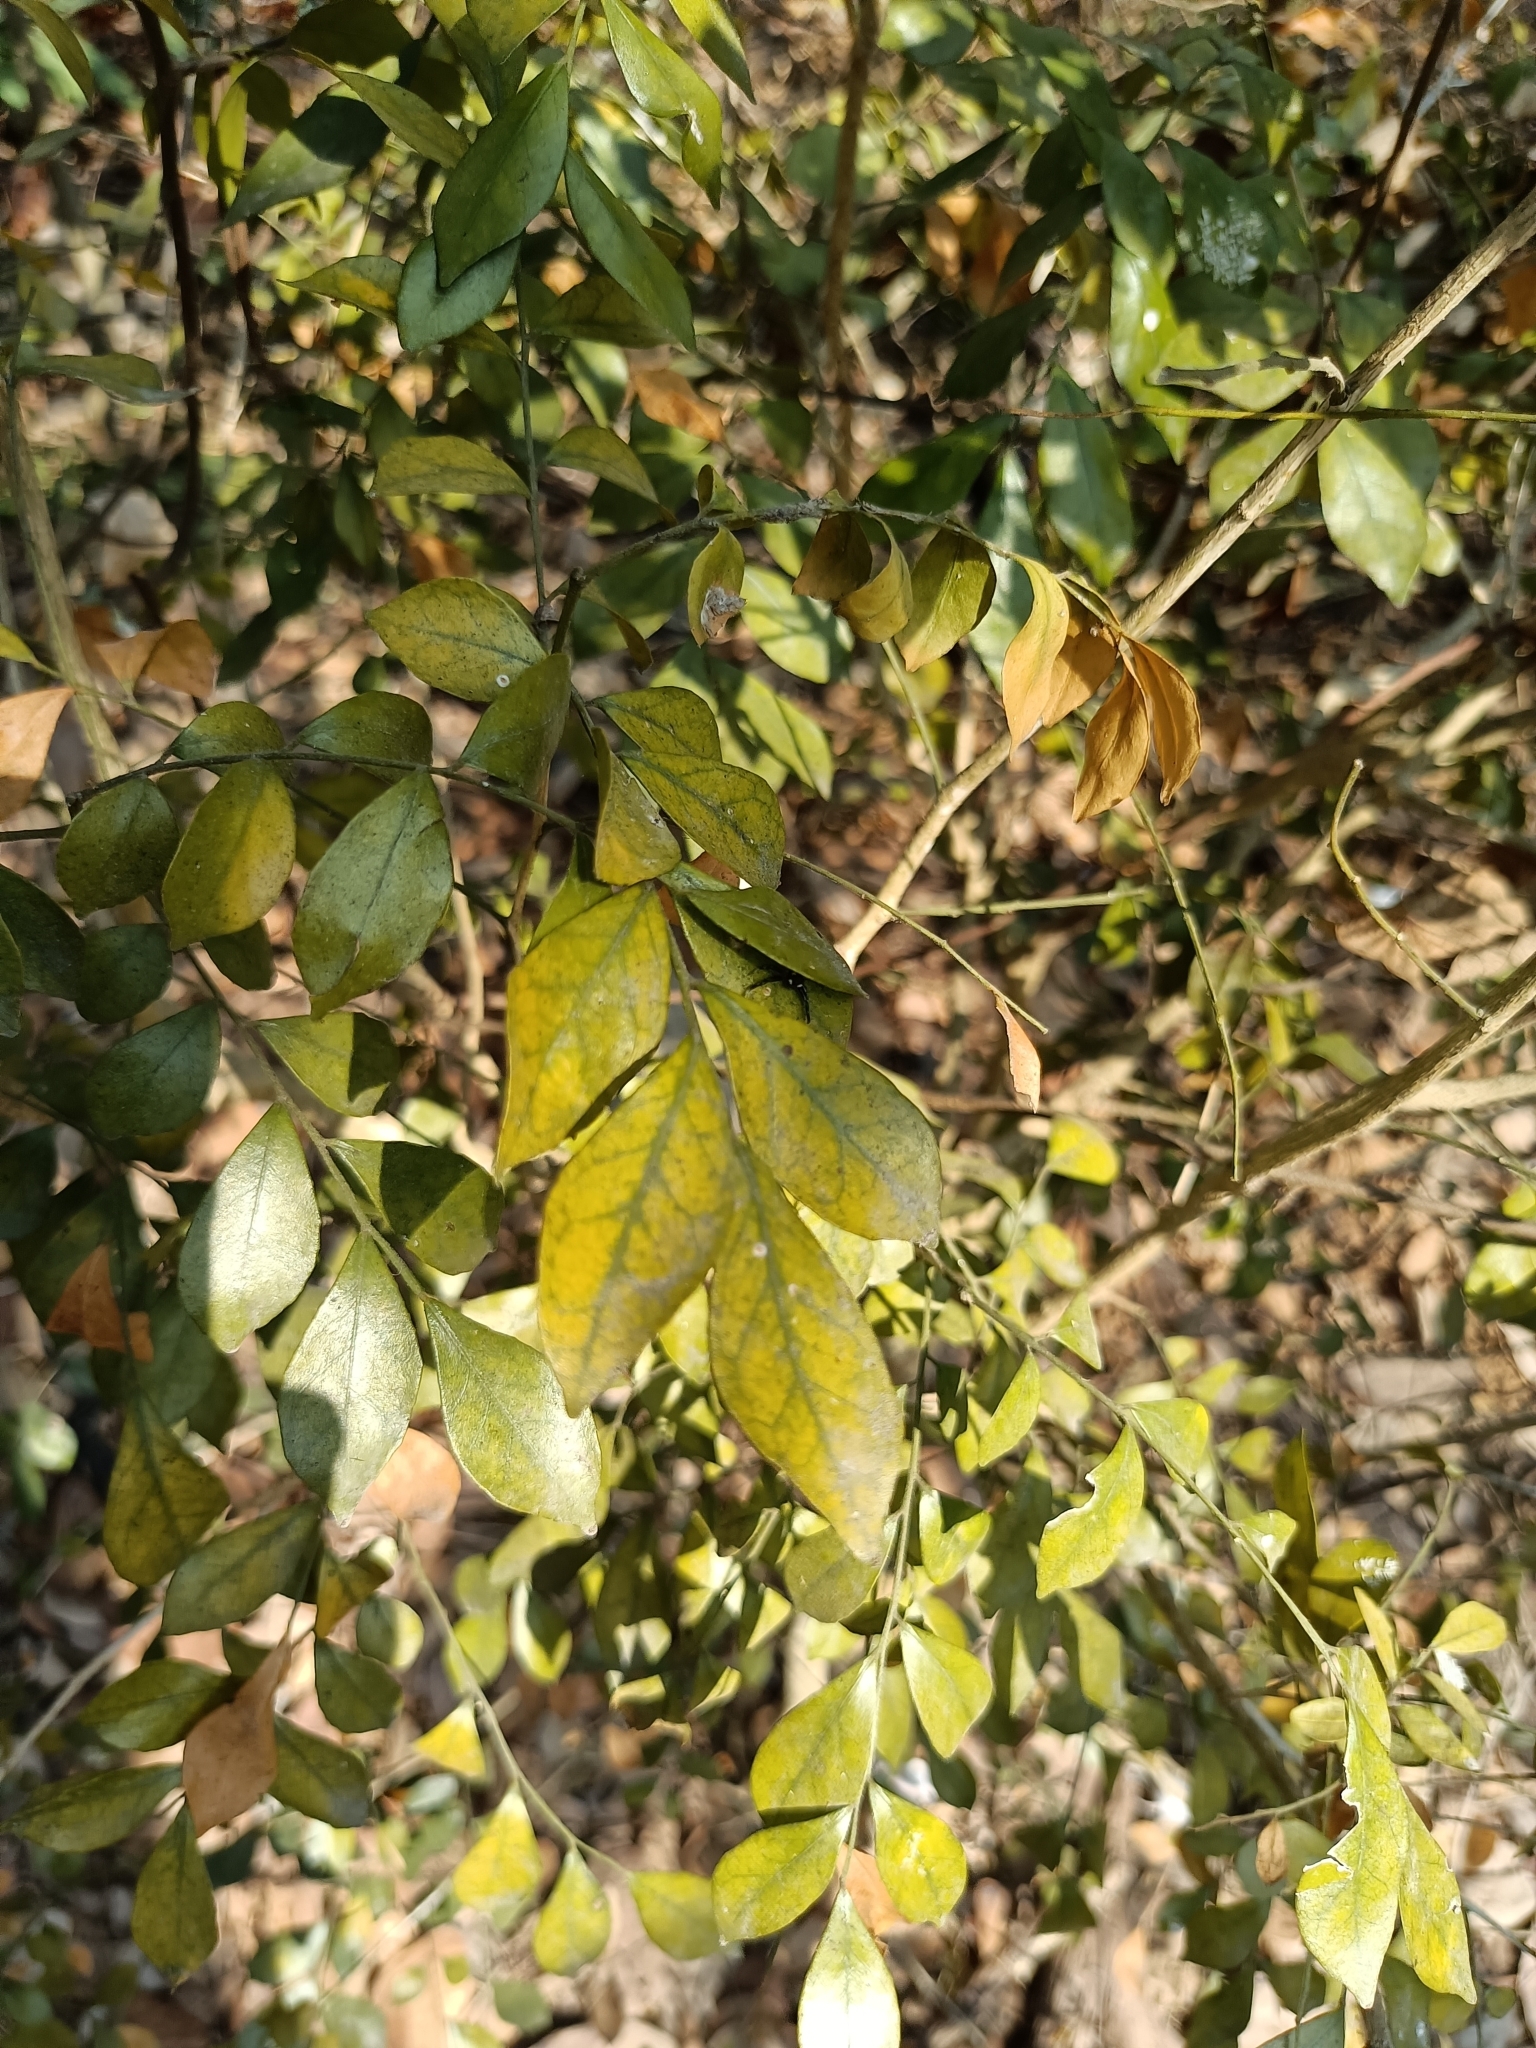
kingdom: Plantae
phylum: Tracheophyta
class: Magnoliopsida
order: Sapindales
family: Rutaceae
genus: Murraya
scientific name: Murraya paniculata
